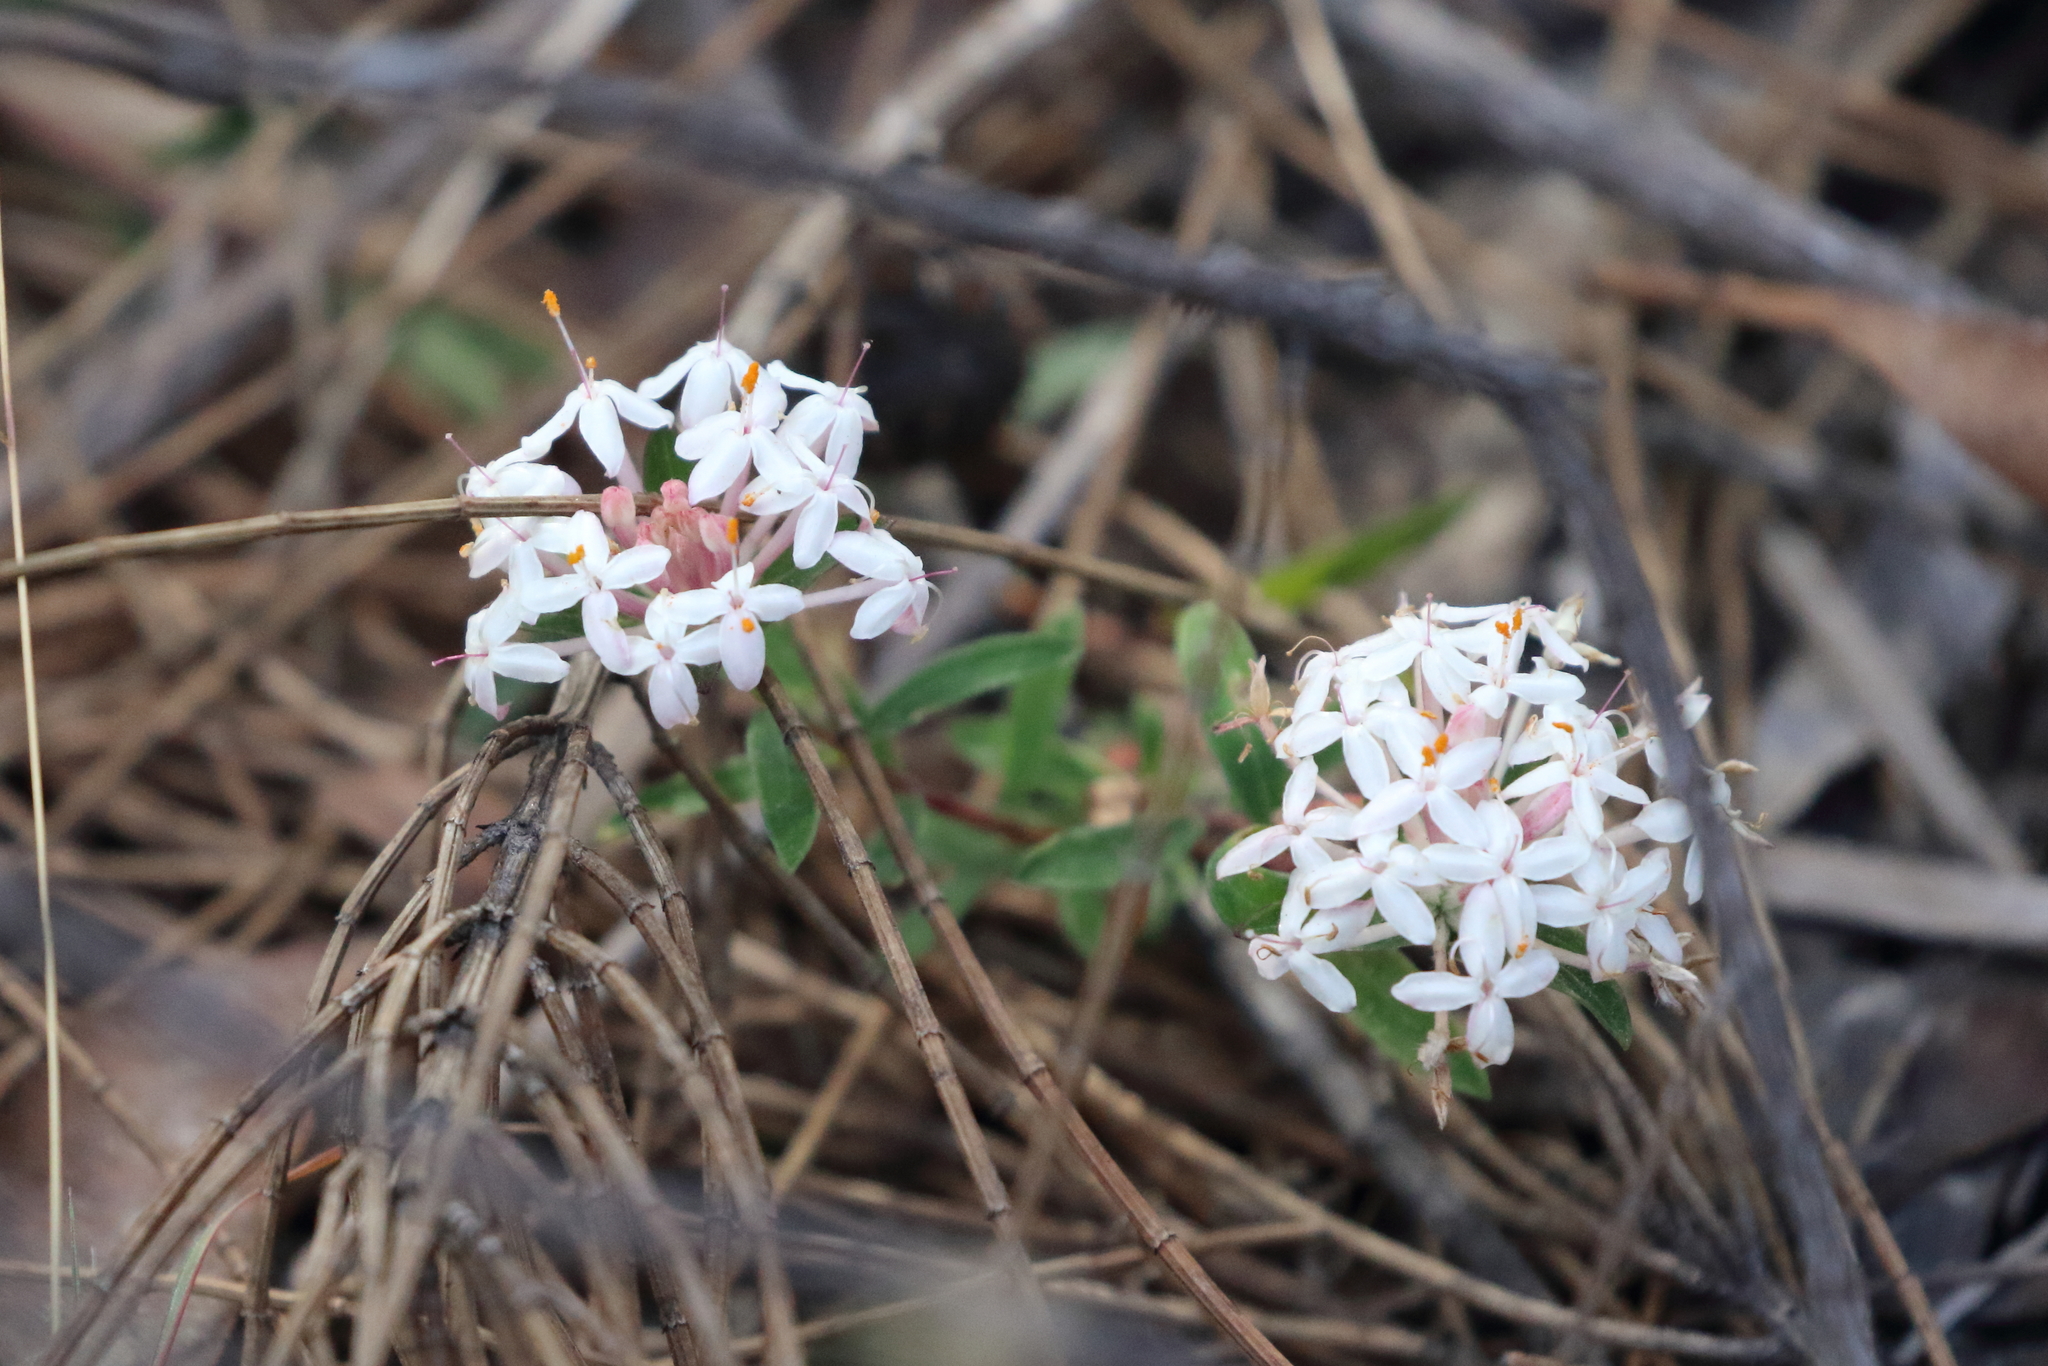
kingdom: Plantae
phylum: Tracheophyta
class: Magnoliopsida
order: Malvales
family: Thymelaeaceae
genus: Pimelea
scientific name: Pimelea linifolia
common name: Queen-of-the-bush
